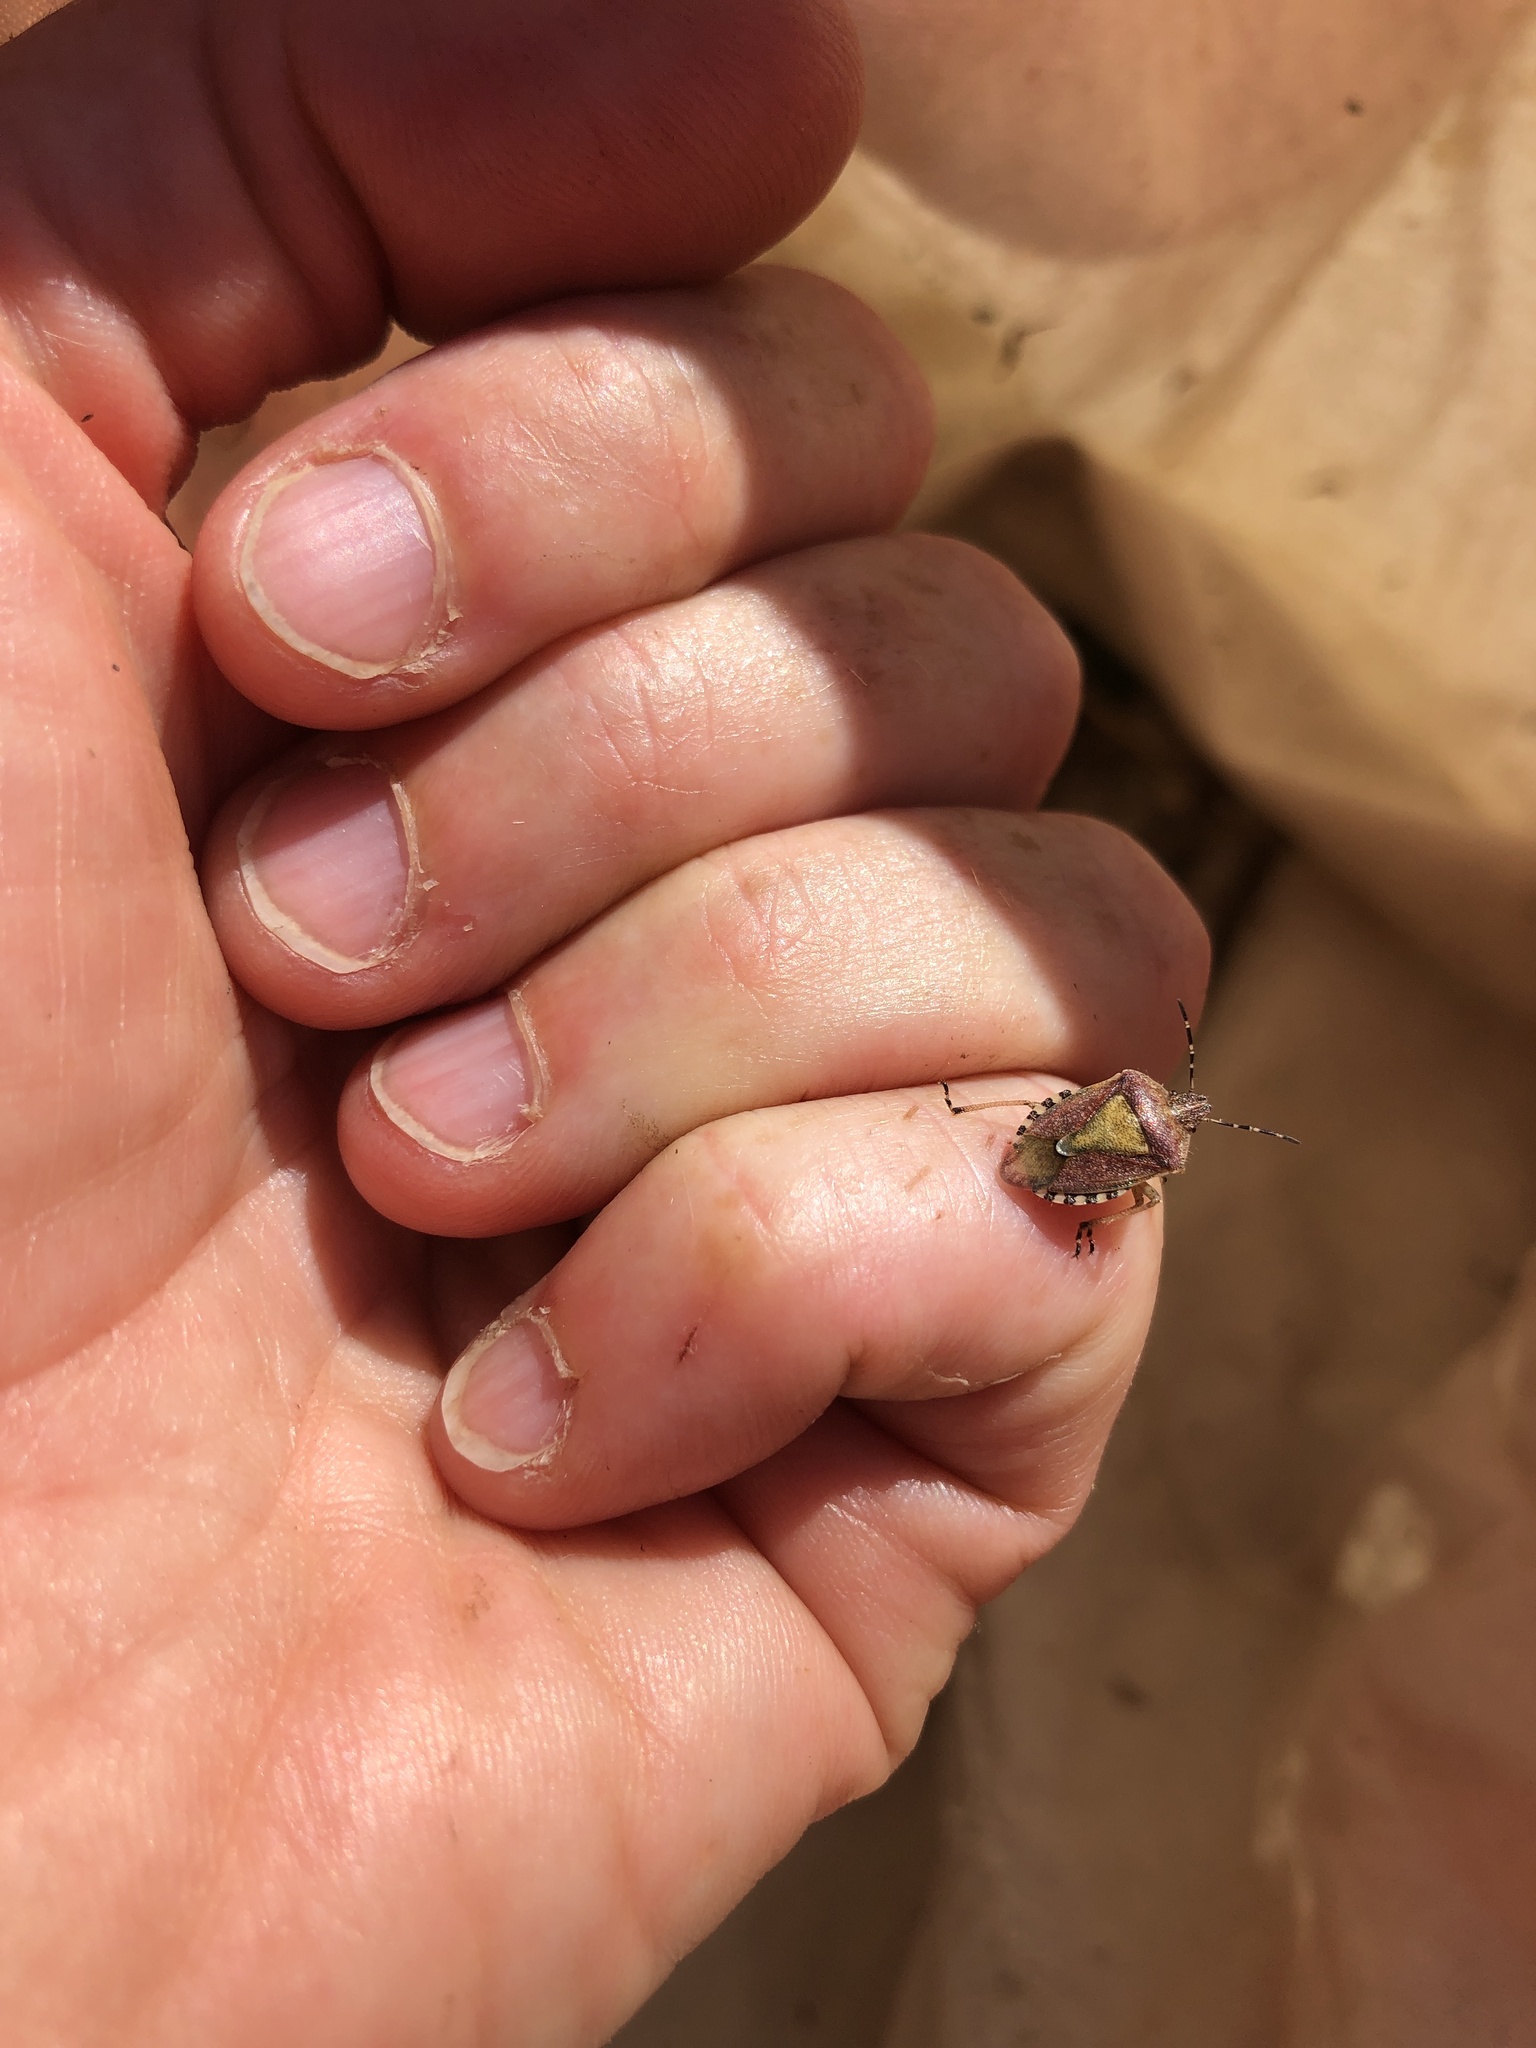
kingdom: Animalia
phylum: Arthropoda
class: Insecta
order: Hemiptera
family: Pentatomidae
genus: Dolycoris
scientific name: Dolycoris baccarum
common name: Sloe bug
